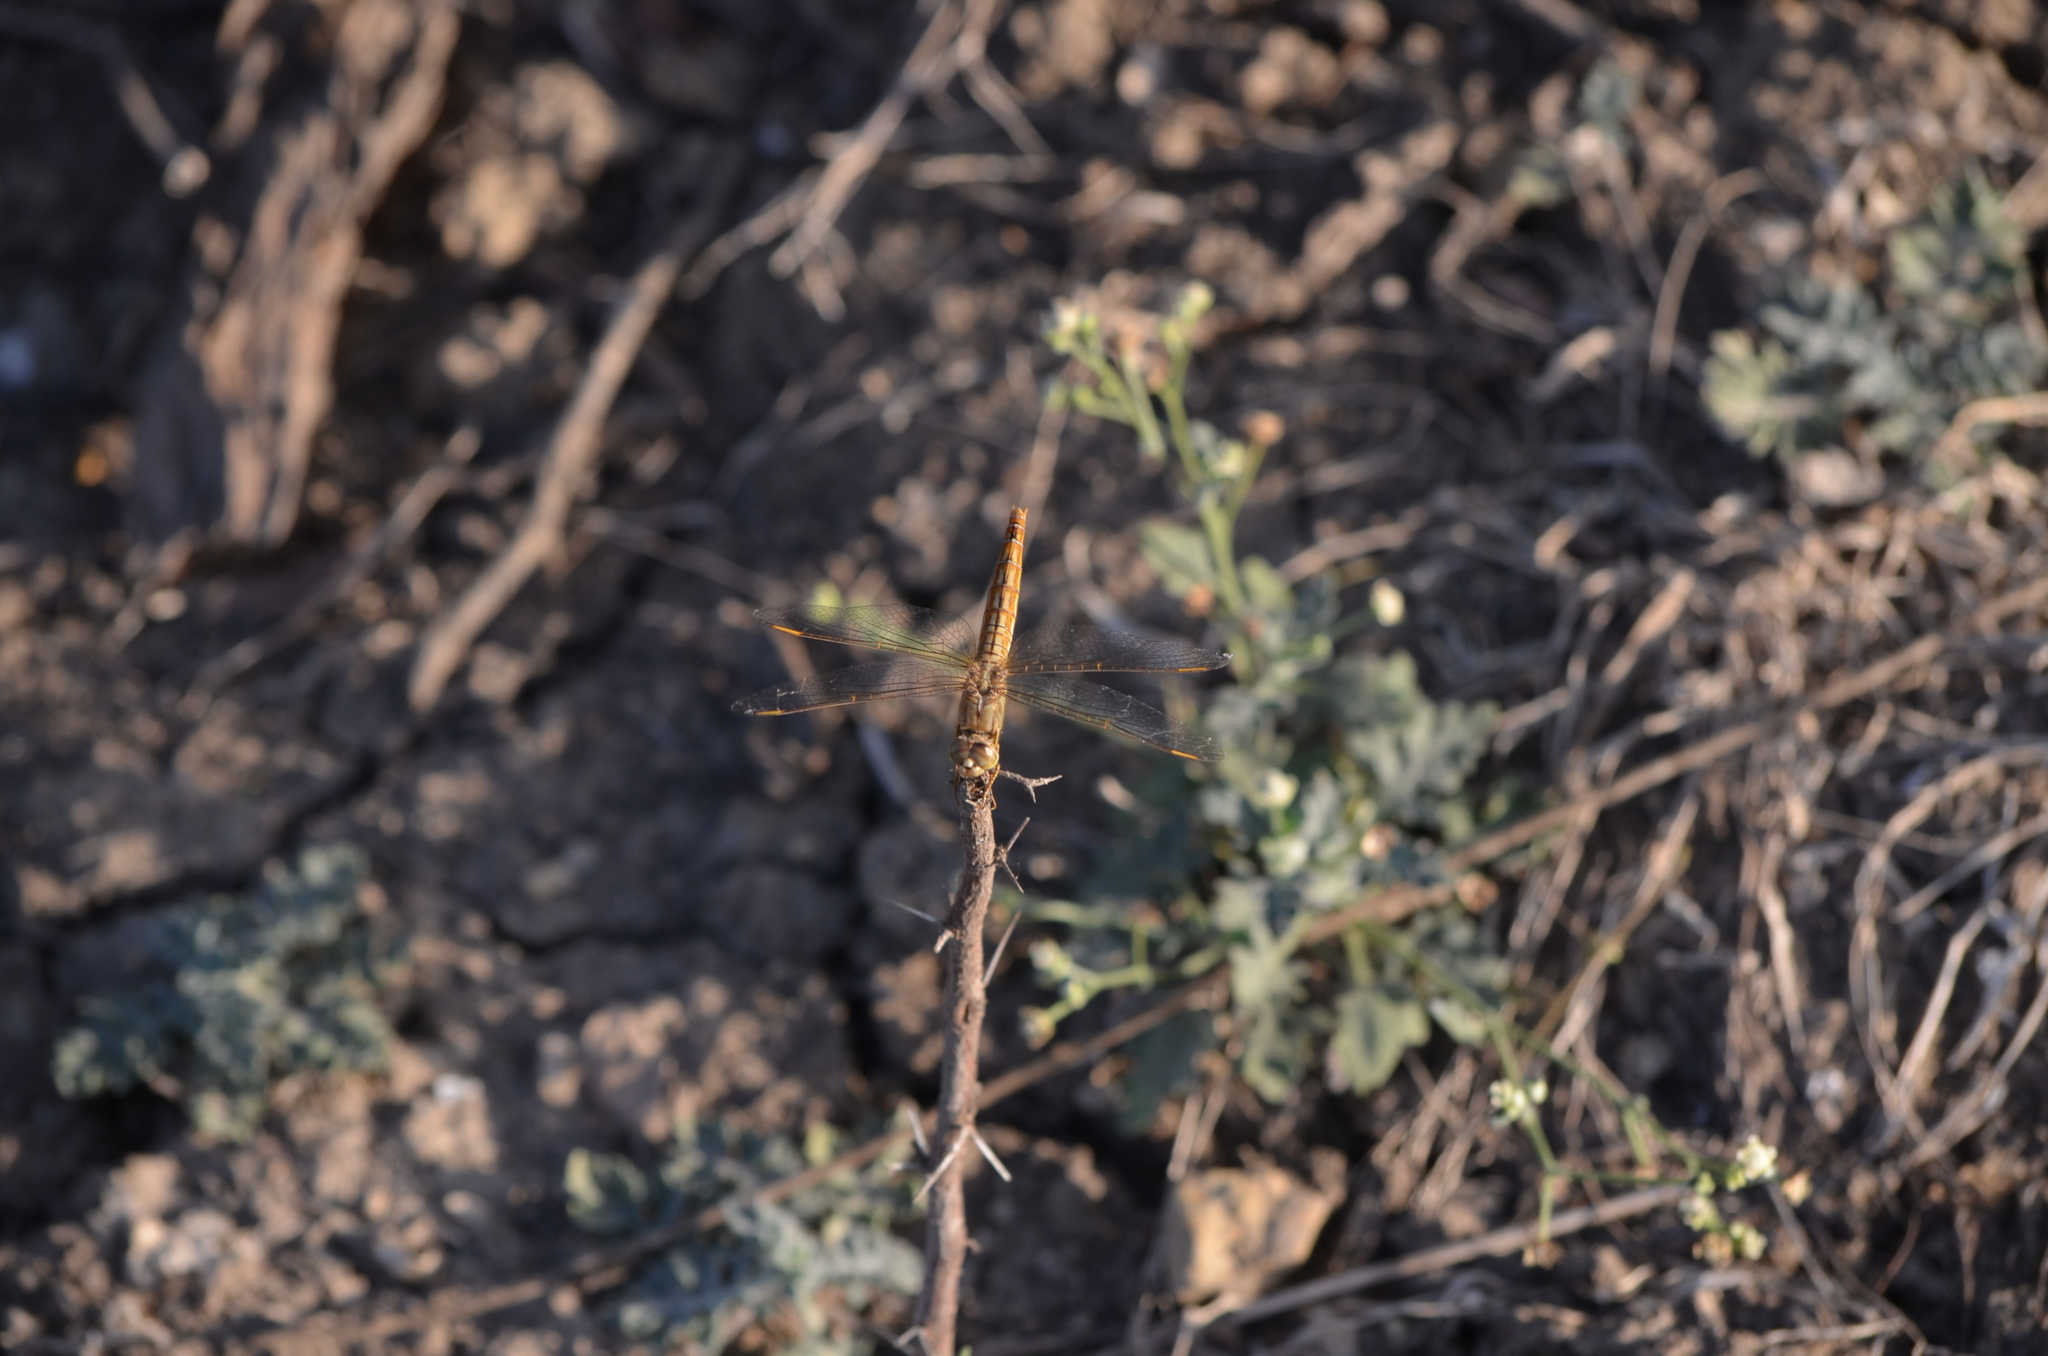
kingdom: Animalia
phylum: Arthropoda
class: Insecta
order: Odonata
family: Libellulidae
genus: Brachythemis
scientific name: Brachythemis contaminata
